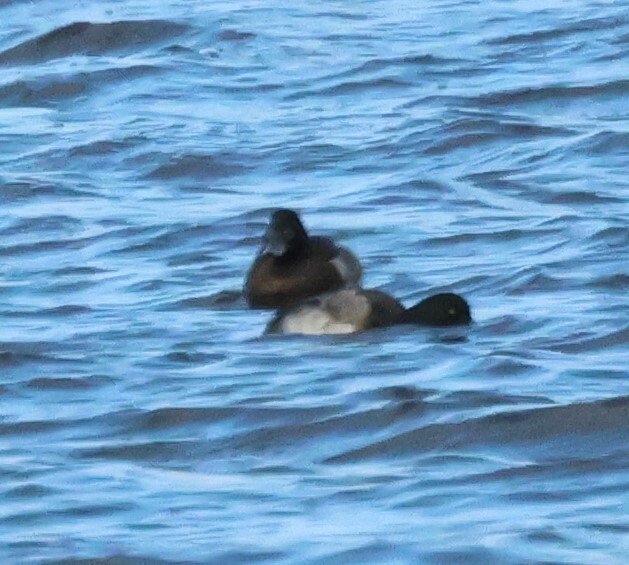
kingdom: Animalia
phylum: Chordata
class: Aves
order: Anseriformes
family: Anatidae
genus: Aythya
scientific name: Aythya marila
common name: Greater scaup
